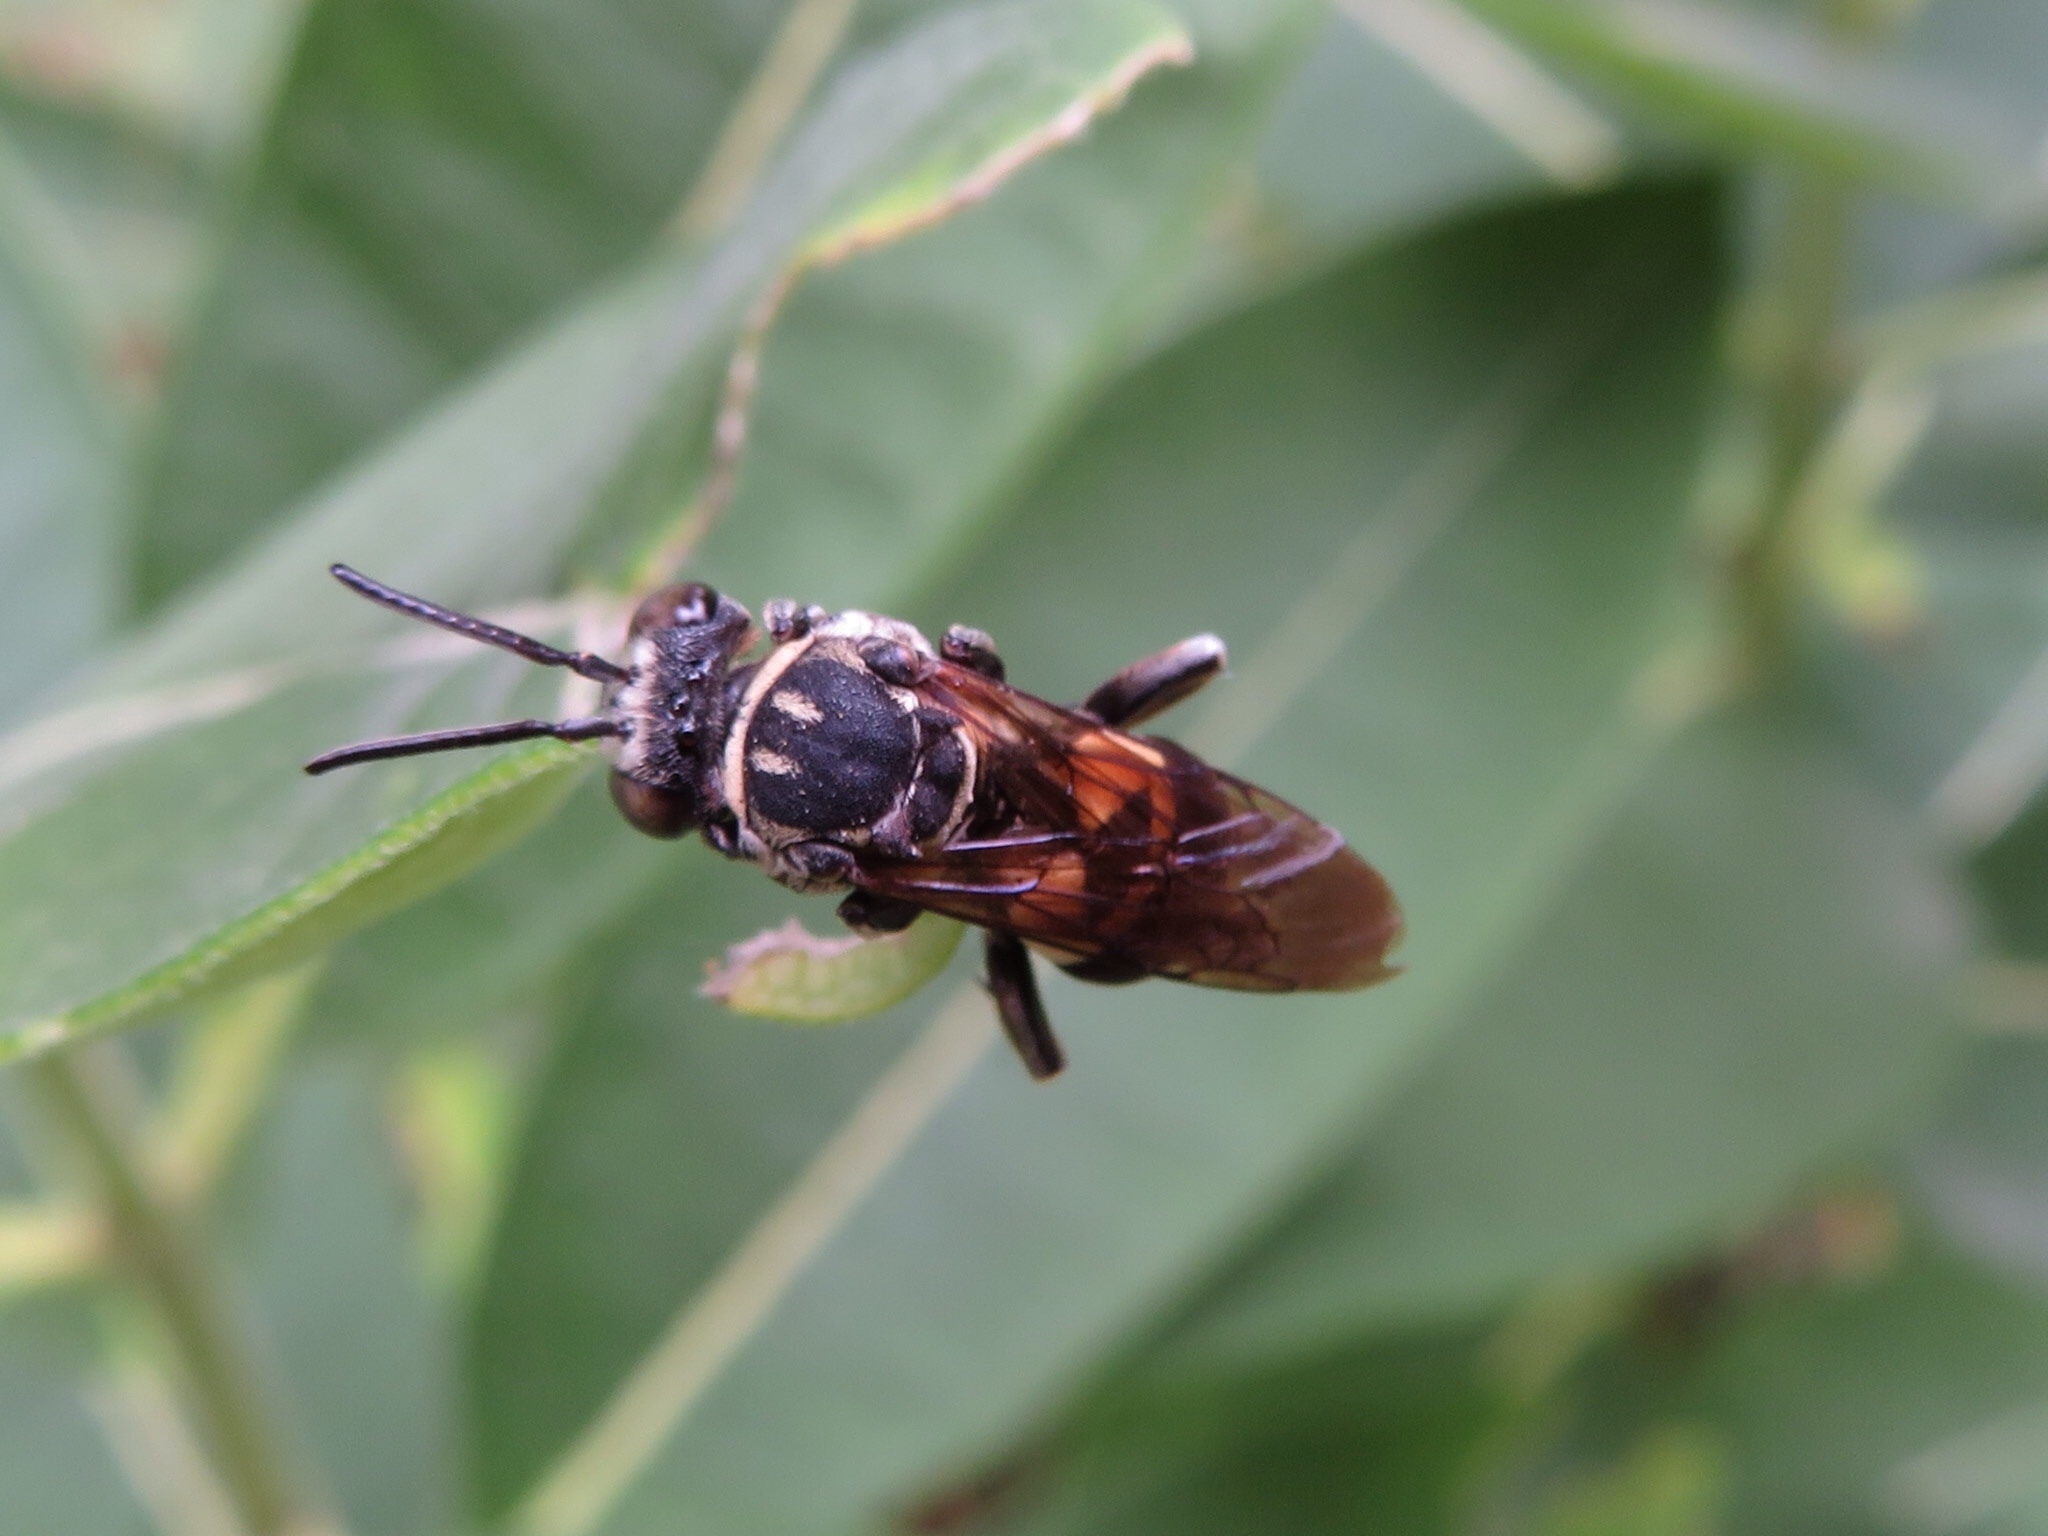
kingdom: Animalia
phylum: Arthropoda
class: Insecta
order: Hymenoptera
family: Apidae
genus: Triepeolus
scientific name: Triepeolus lunatus
